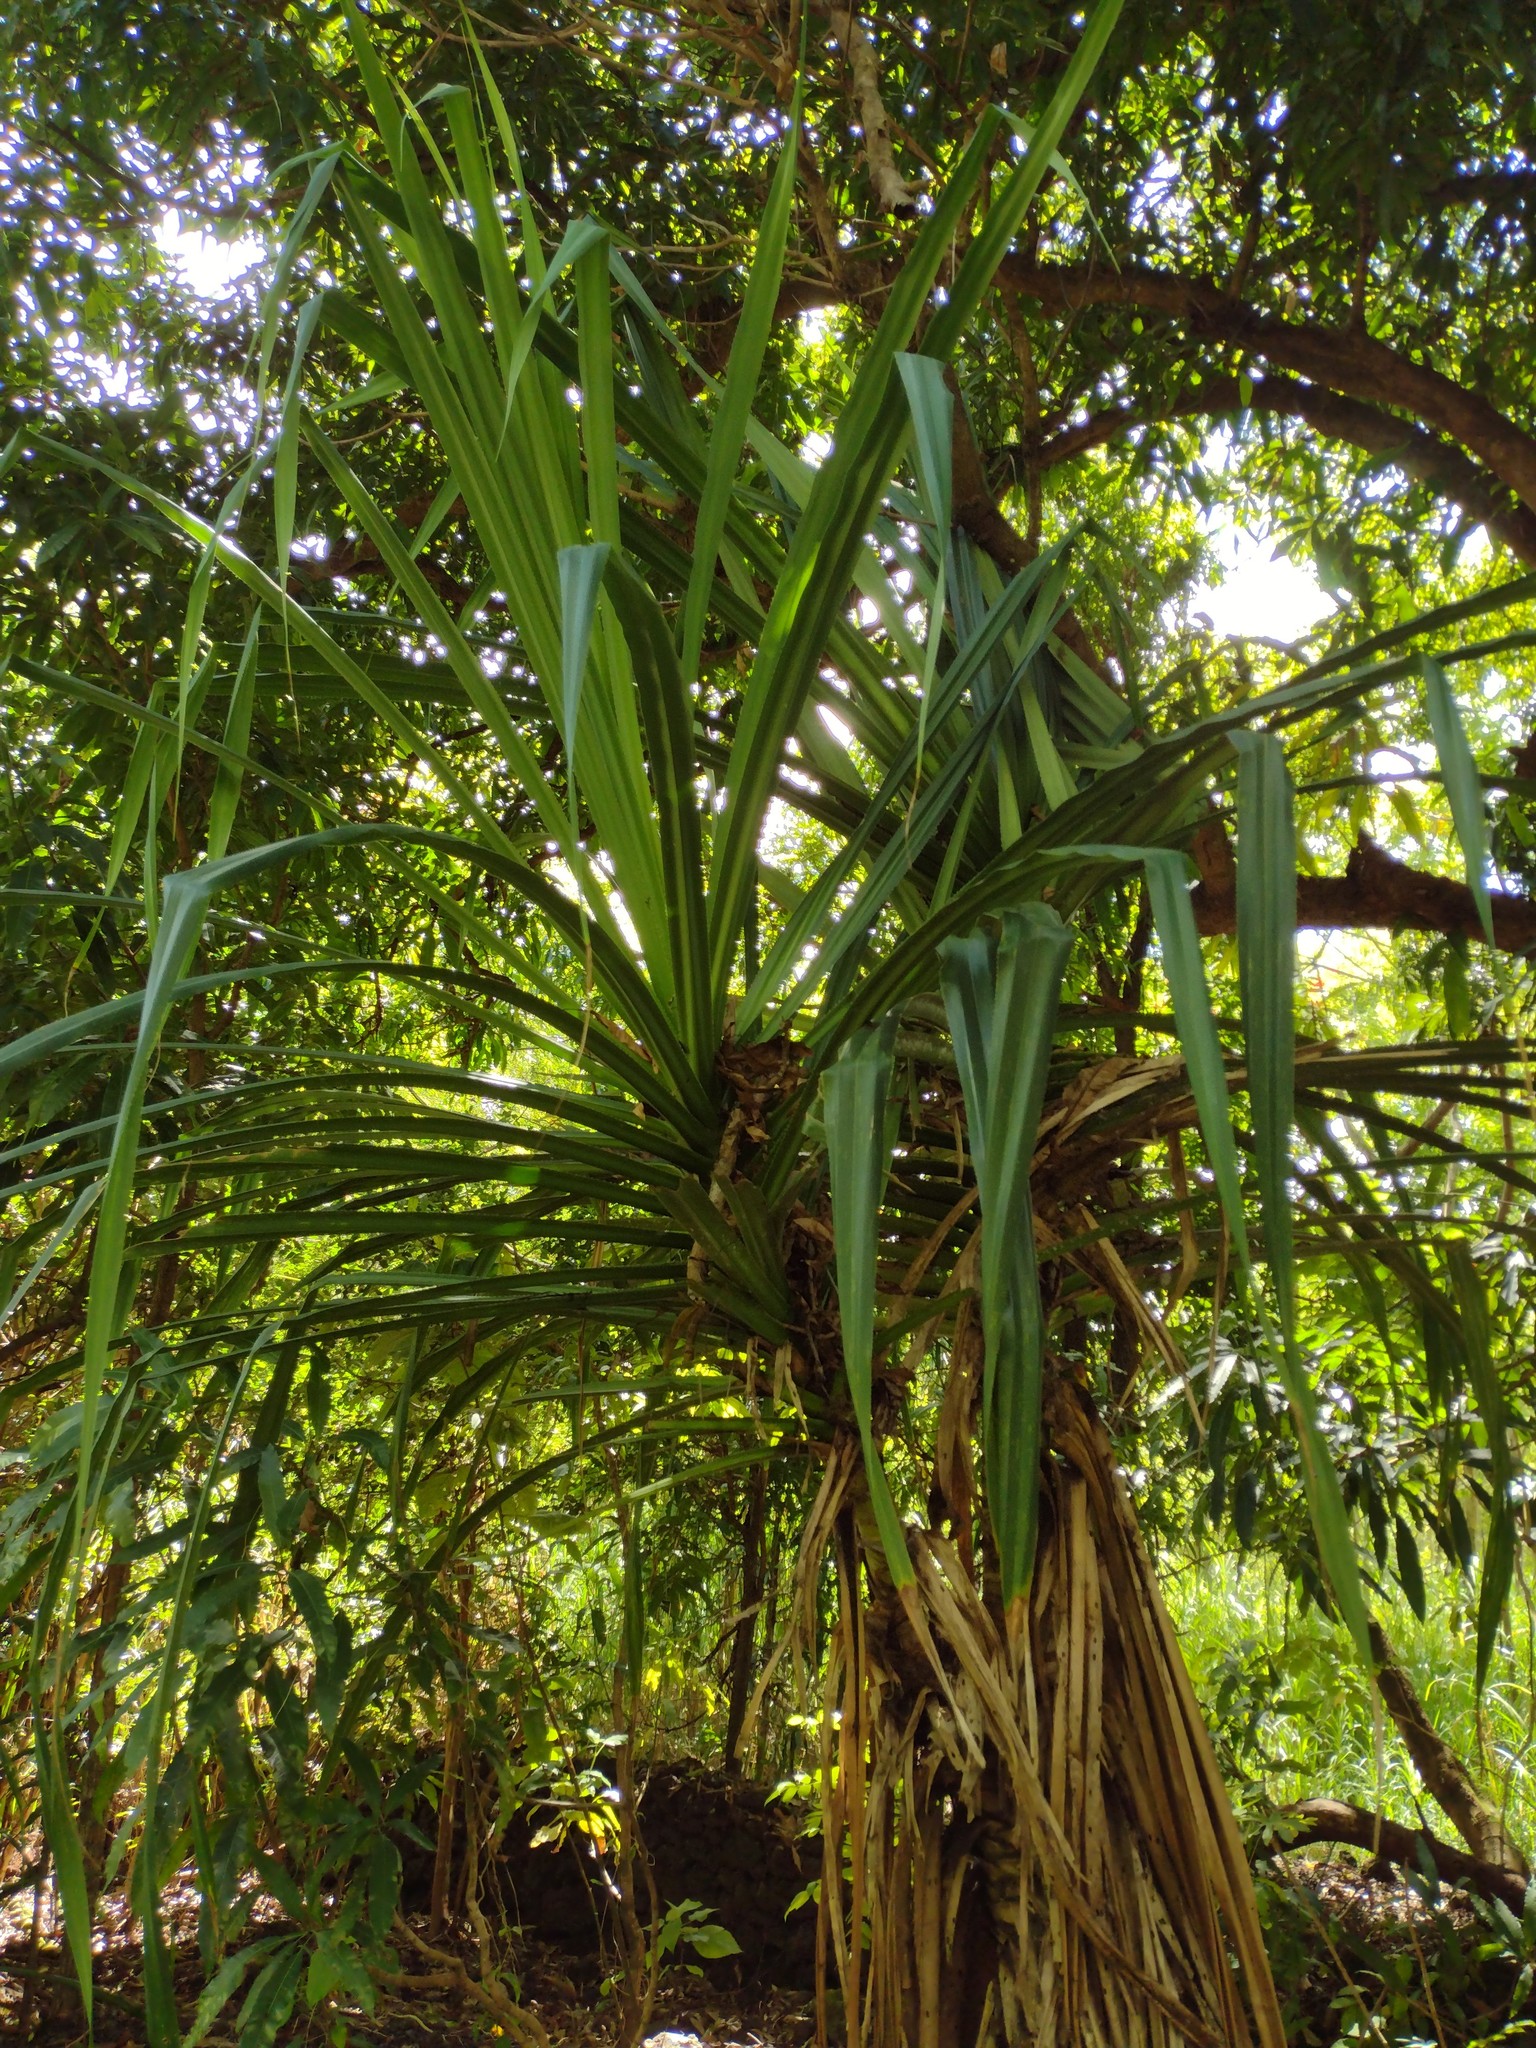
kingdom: Plantae
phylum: Tracheophyta
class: Liliopsida
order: Pandanales
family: Pandanaceae
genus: Pandanus
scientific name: Pandanus tectorius
